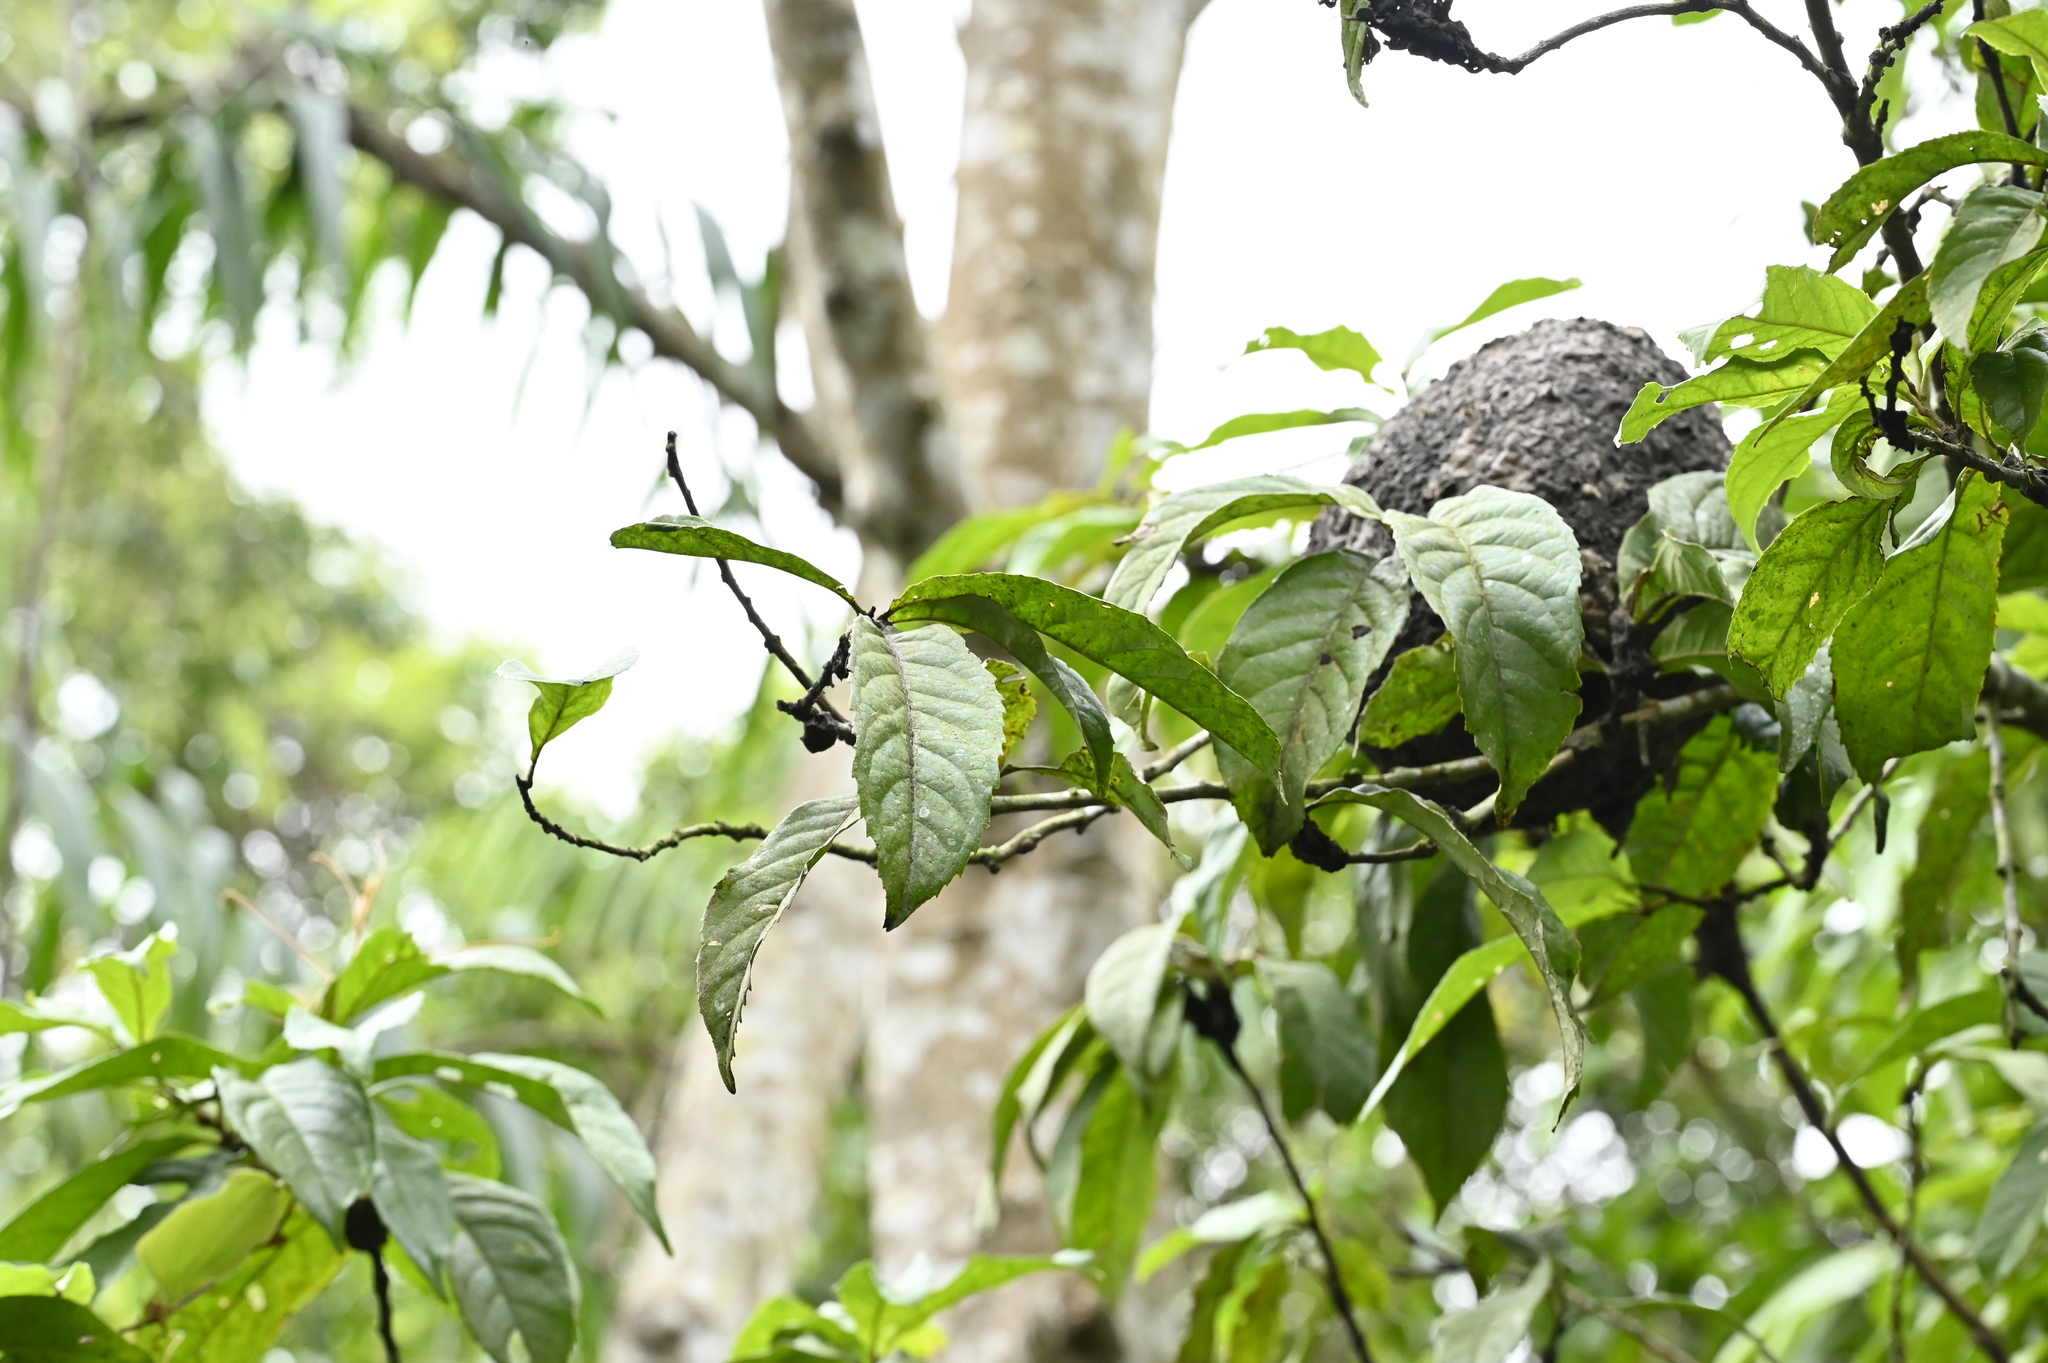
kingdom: Plantae
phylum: Tracheophyta
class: Magnoliopsida
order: Proteales
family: Proteaceae
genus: Helicia
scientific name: Helicia formosana
